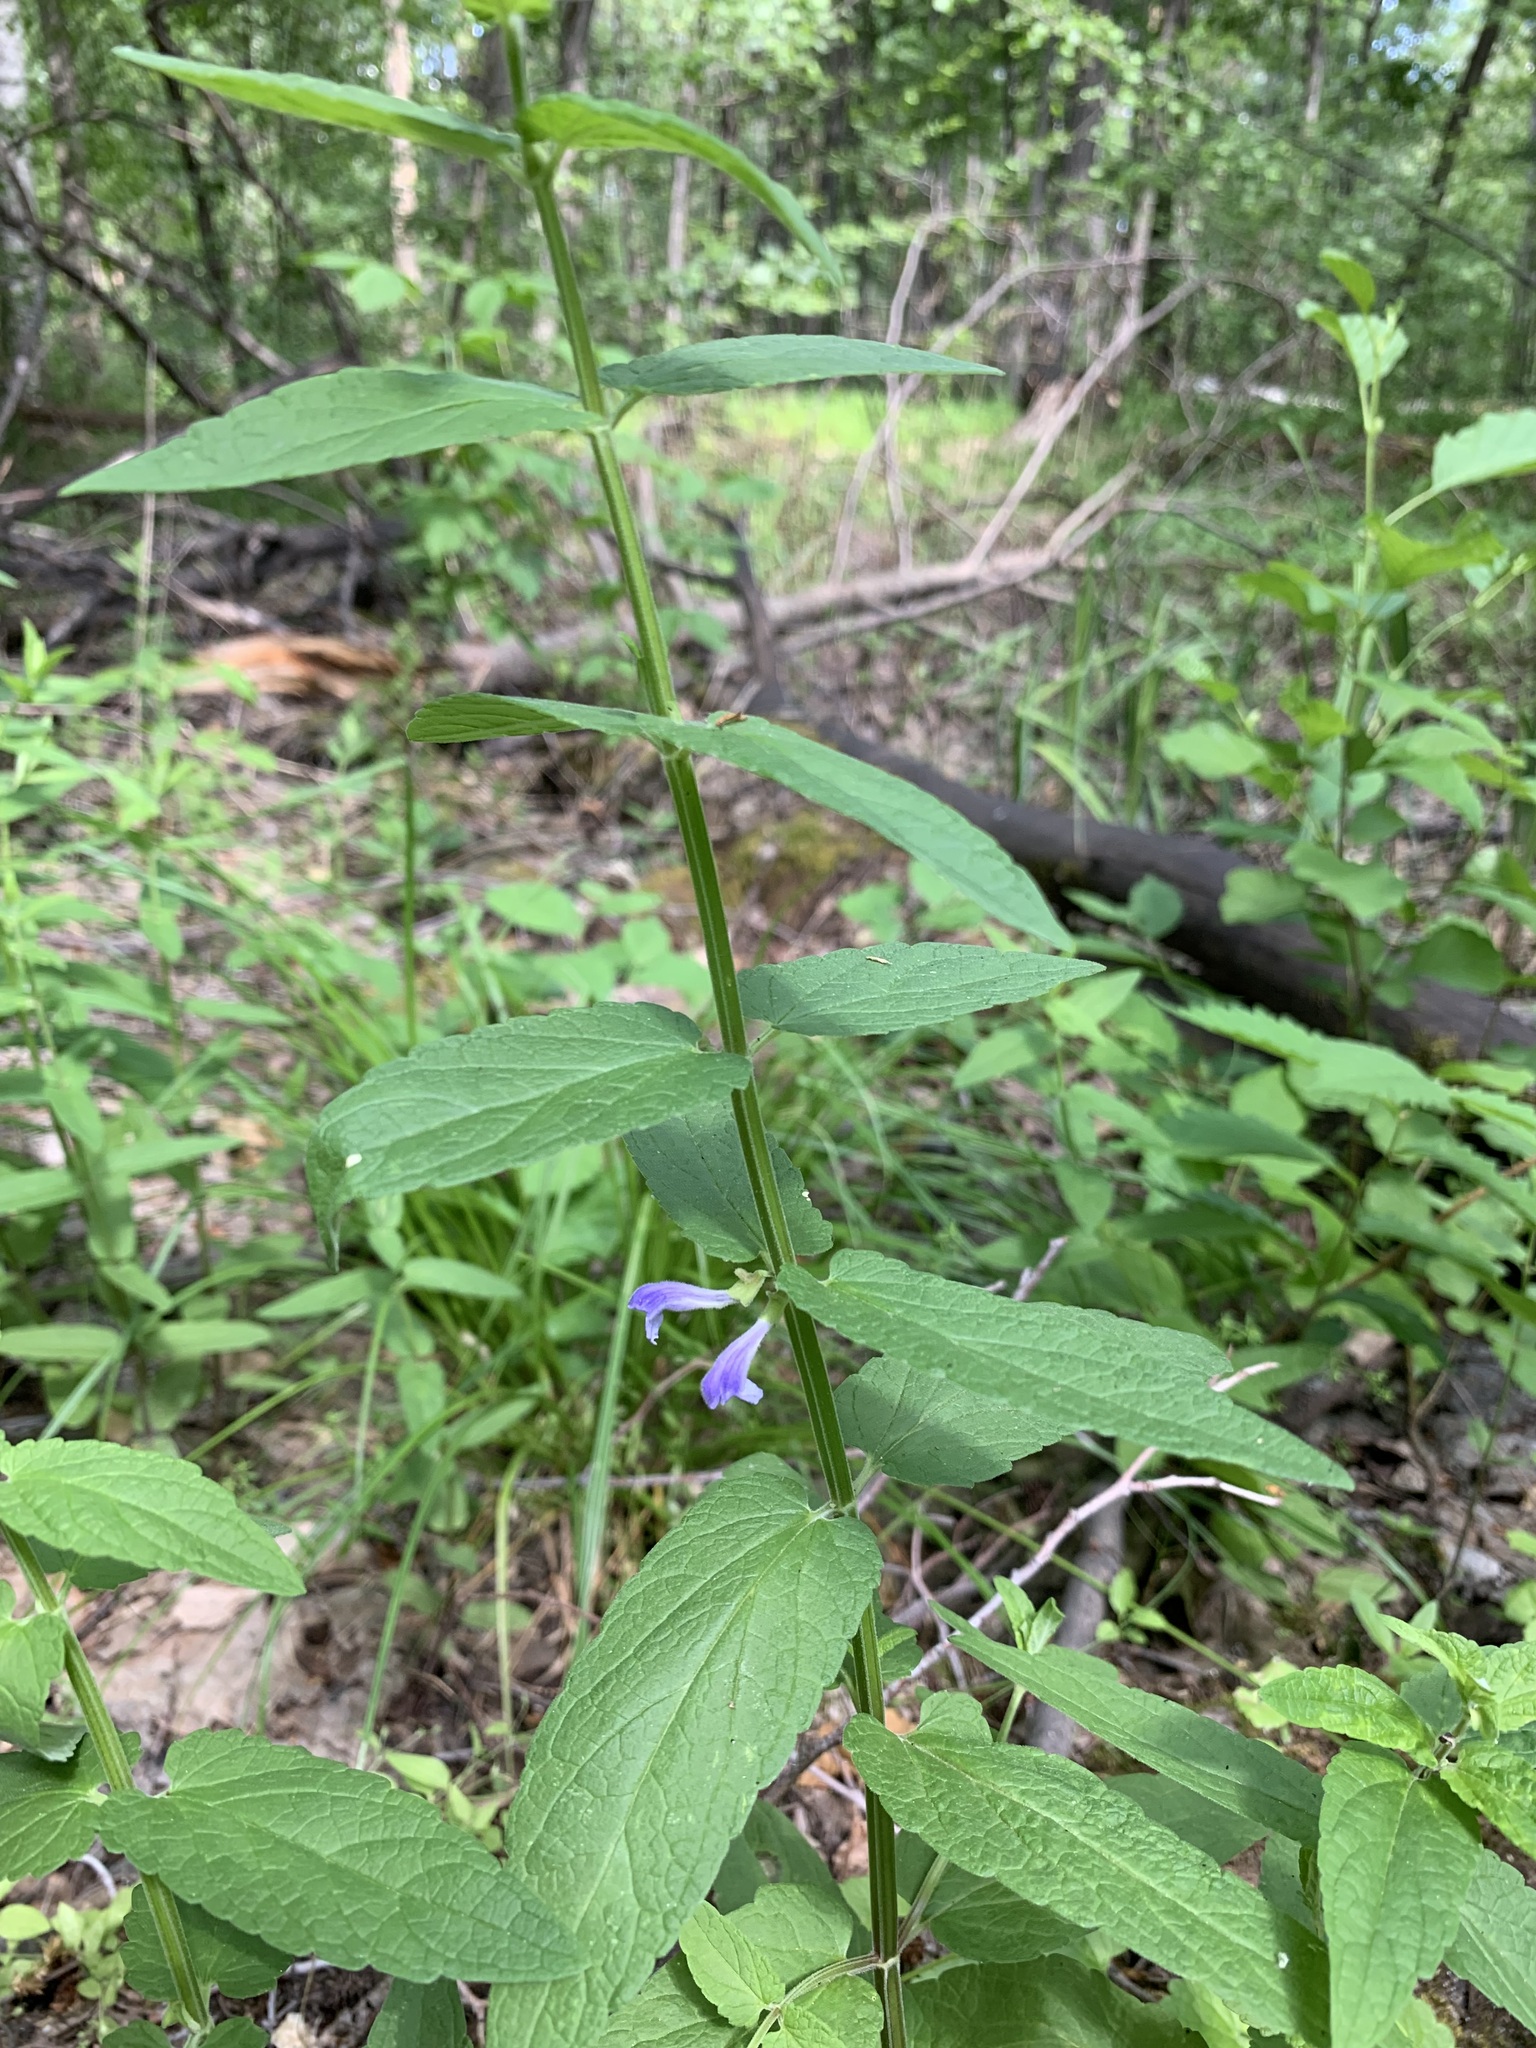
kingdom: Plantae
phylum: Tracheophyta
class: Magnoliopsida
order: Lamiales
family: Lamiaceae
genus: Scutellaria
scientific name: Scutellaria galericulata
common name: Skullcap
